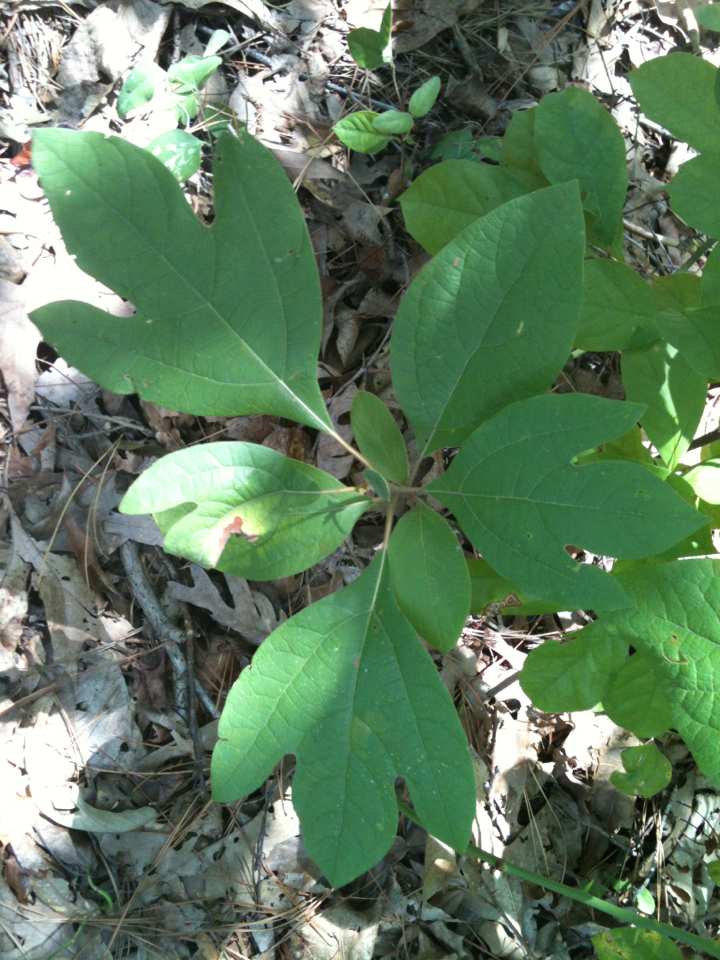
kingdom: Plantae
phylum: Tracheophyta
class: Magnoliopsida
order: Laurales
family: Lauraceae
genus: Sassafras
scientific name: Sassafras albidum
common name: Sassafras
